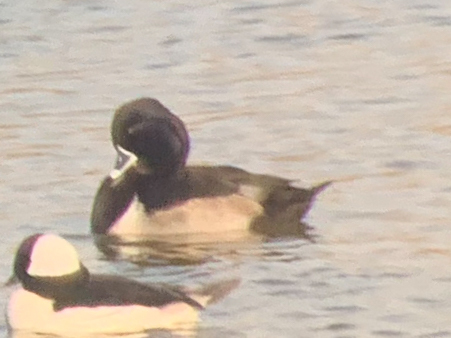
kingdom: Animalia
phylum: Chordata
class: Aves
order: Anseriformes
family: Anatidae
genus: Aythya
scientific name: Aythya collaris
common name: Ring-necked duck
